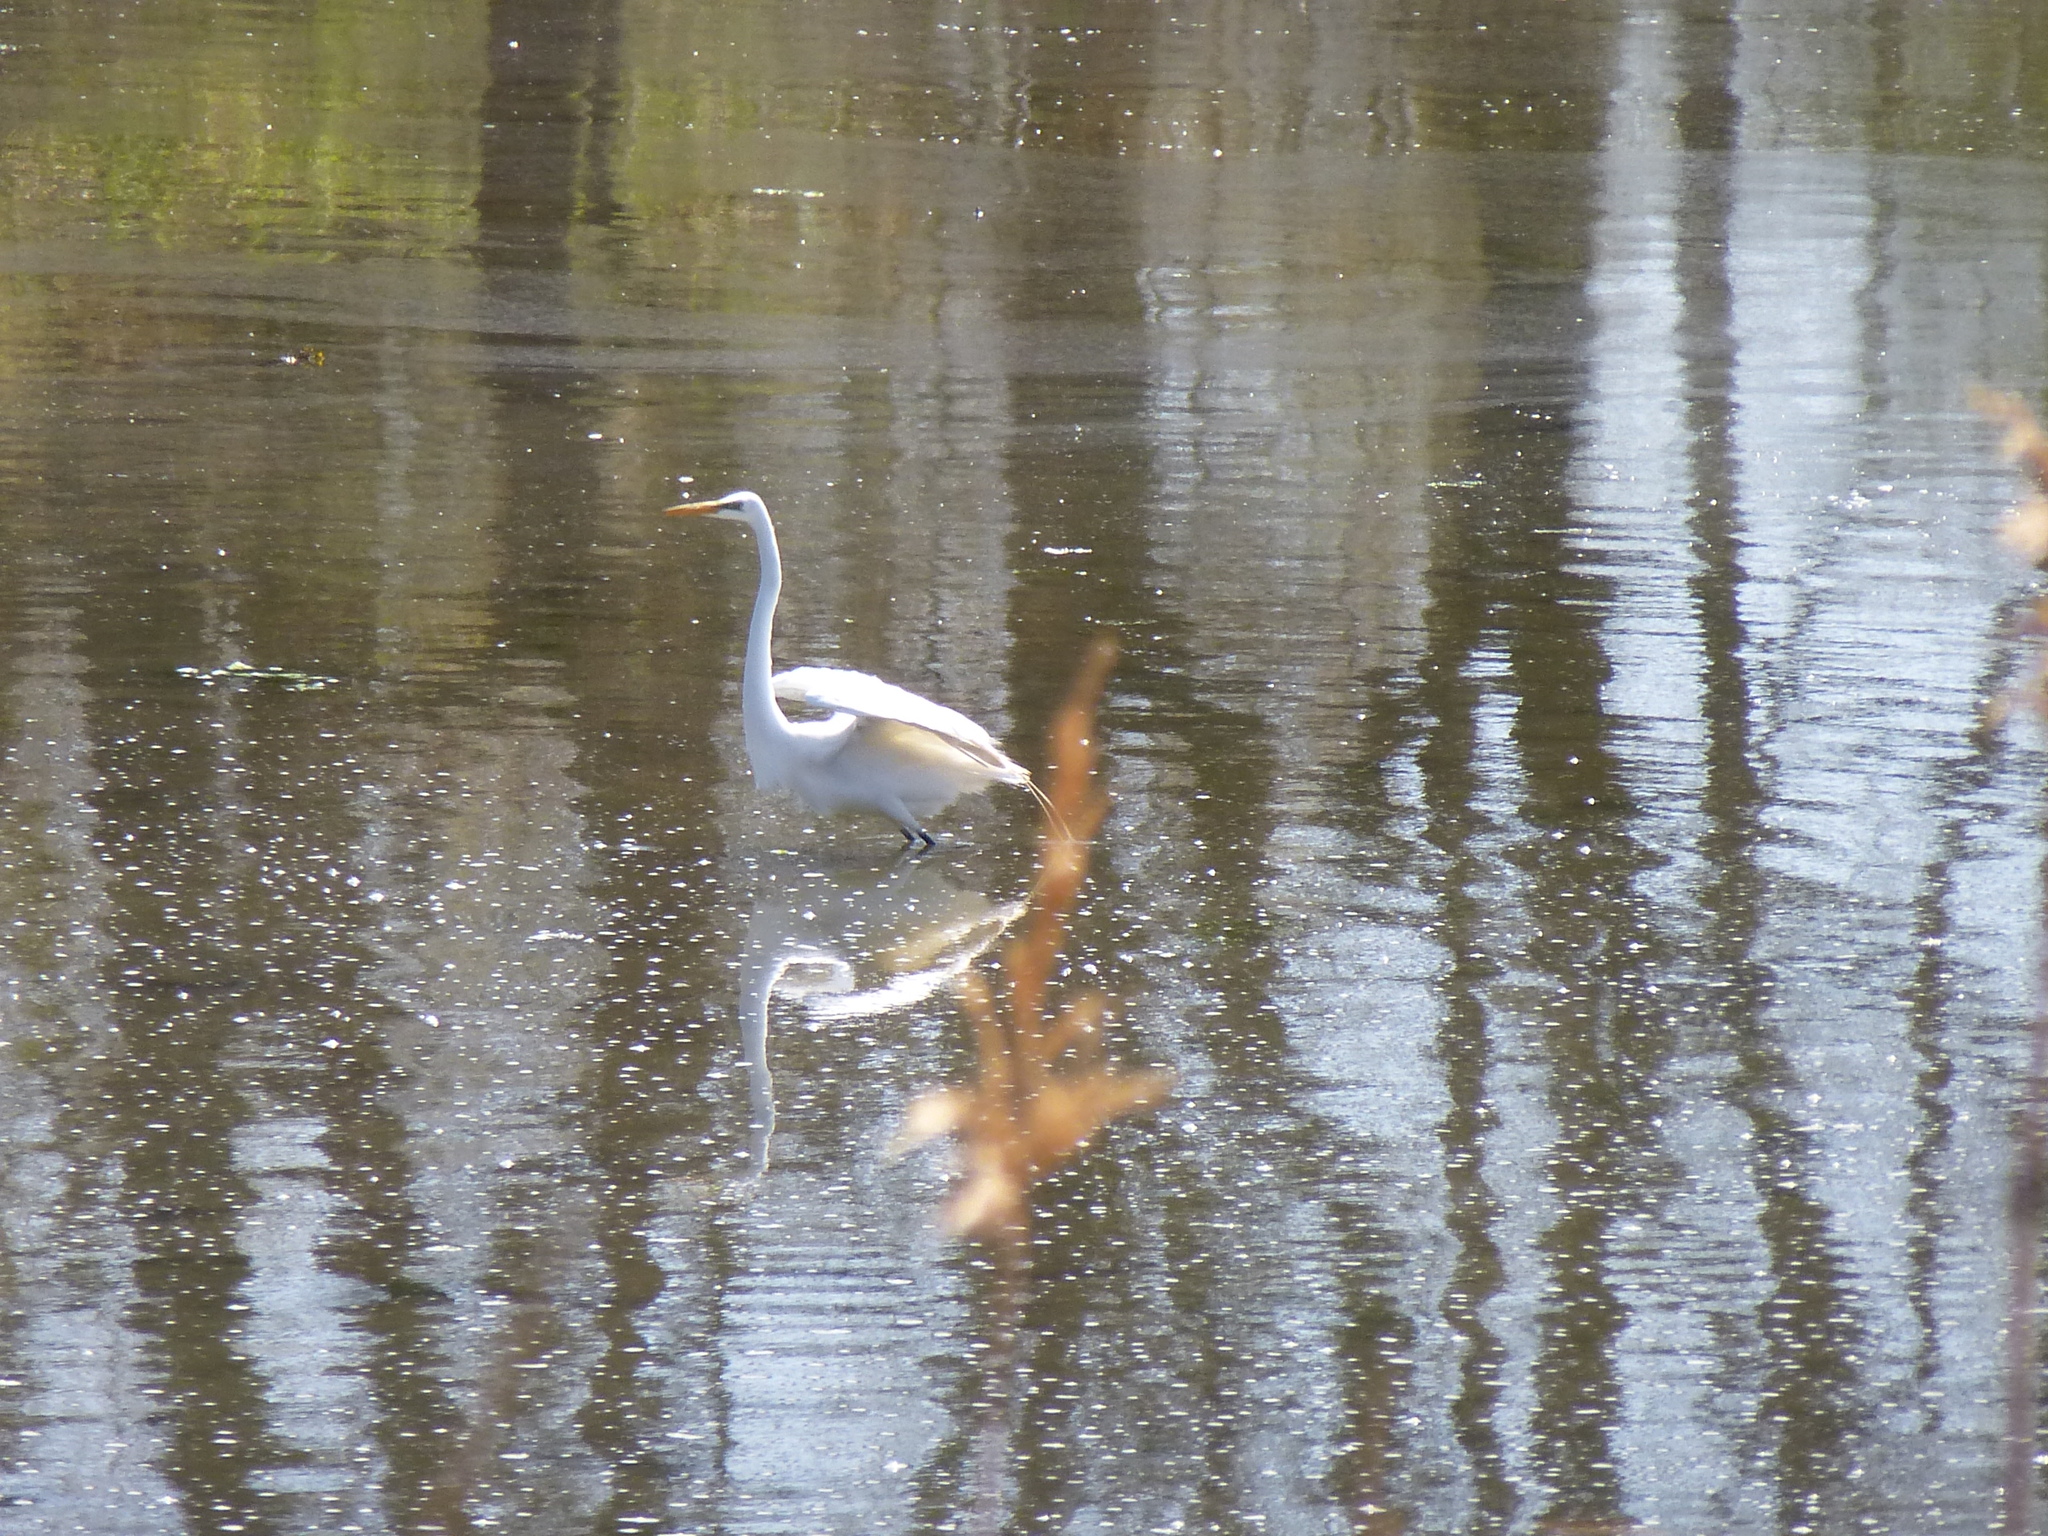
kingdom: Animalia
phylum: Chordata
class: Aves
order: Pelecaniformes
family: Ardeidae
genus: Ardea
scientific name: Ardea alba
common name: Great egret
